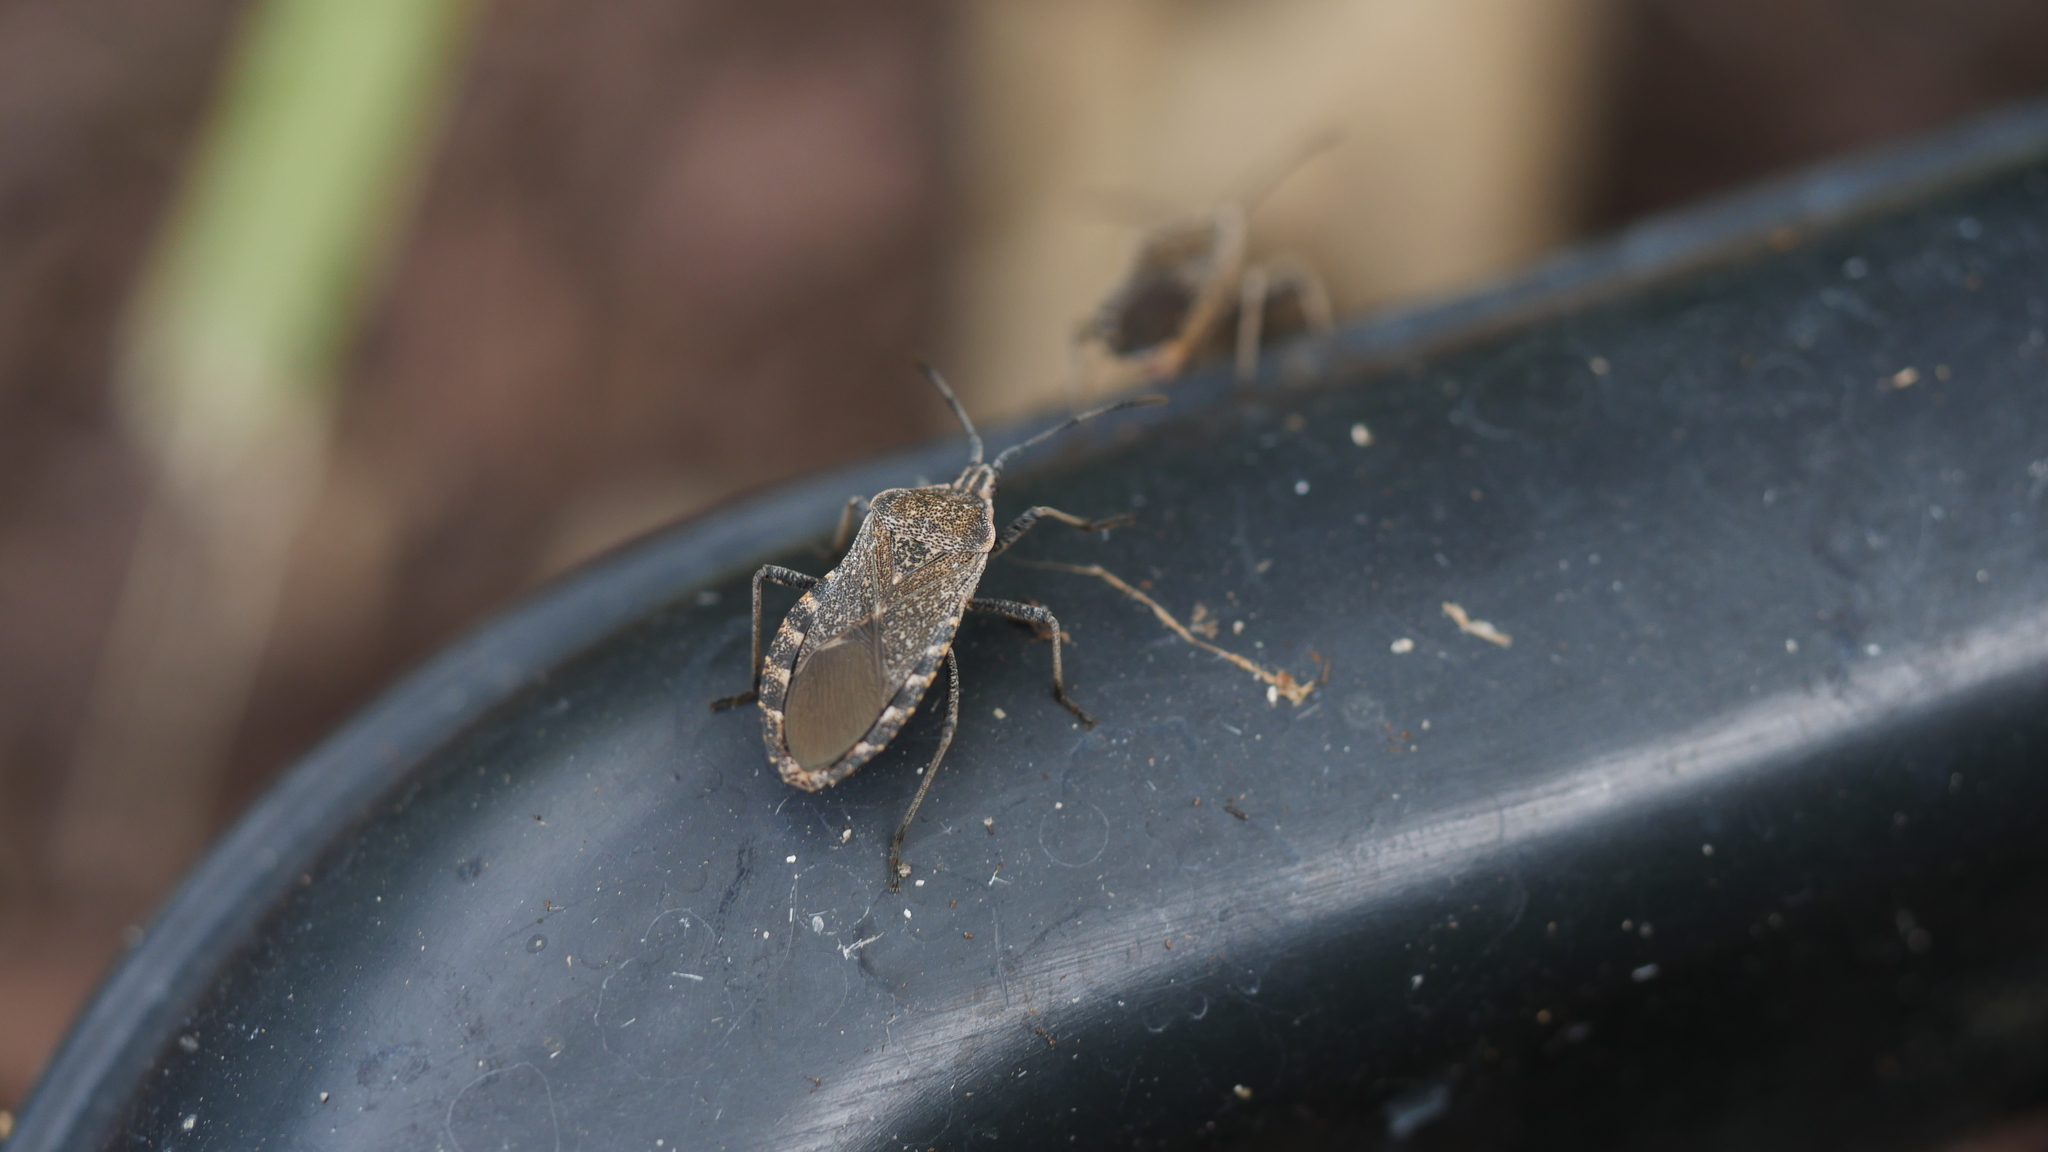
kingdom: Animalia
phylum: Arthropoda
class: Insecta
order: Hemiptera
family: Coreidae
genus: Anasa
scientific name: Anasa tristis
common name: Squash bug
